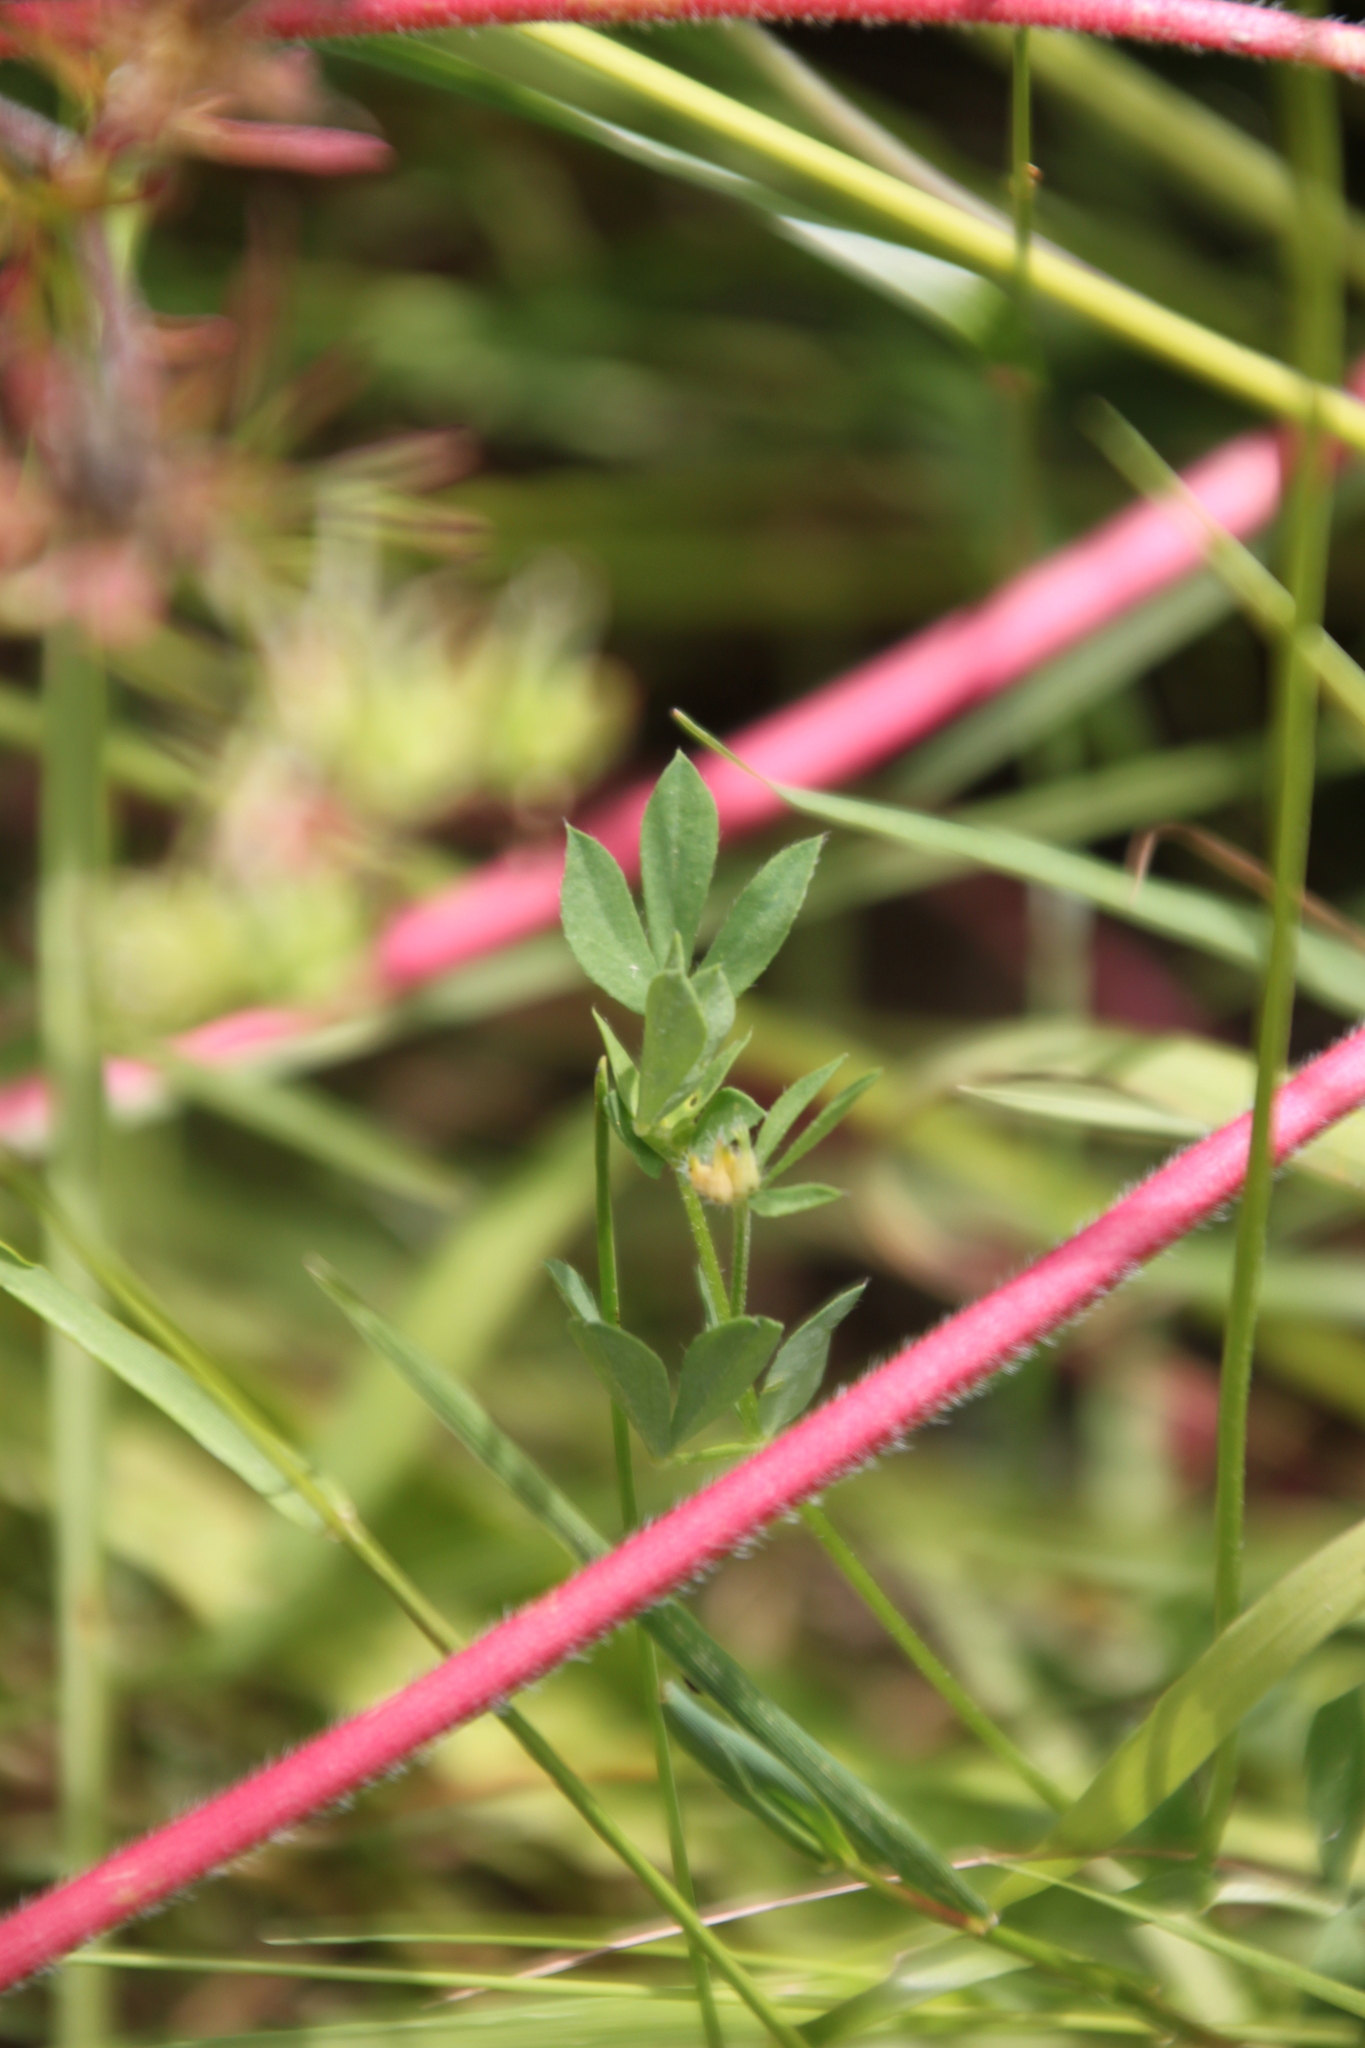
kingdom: Plantae
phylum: Tracheophyta
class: Magnoliopsida
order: Fabales
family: Fabaceae
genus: Lotus
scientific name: Lotus corniculatus
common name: Common bird's-foot-trefoil
